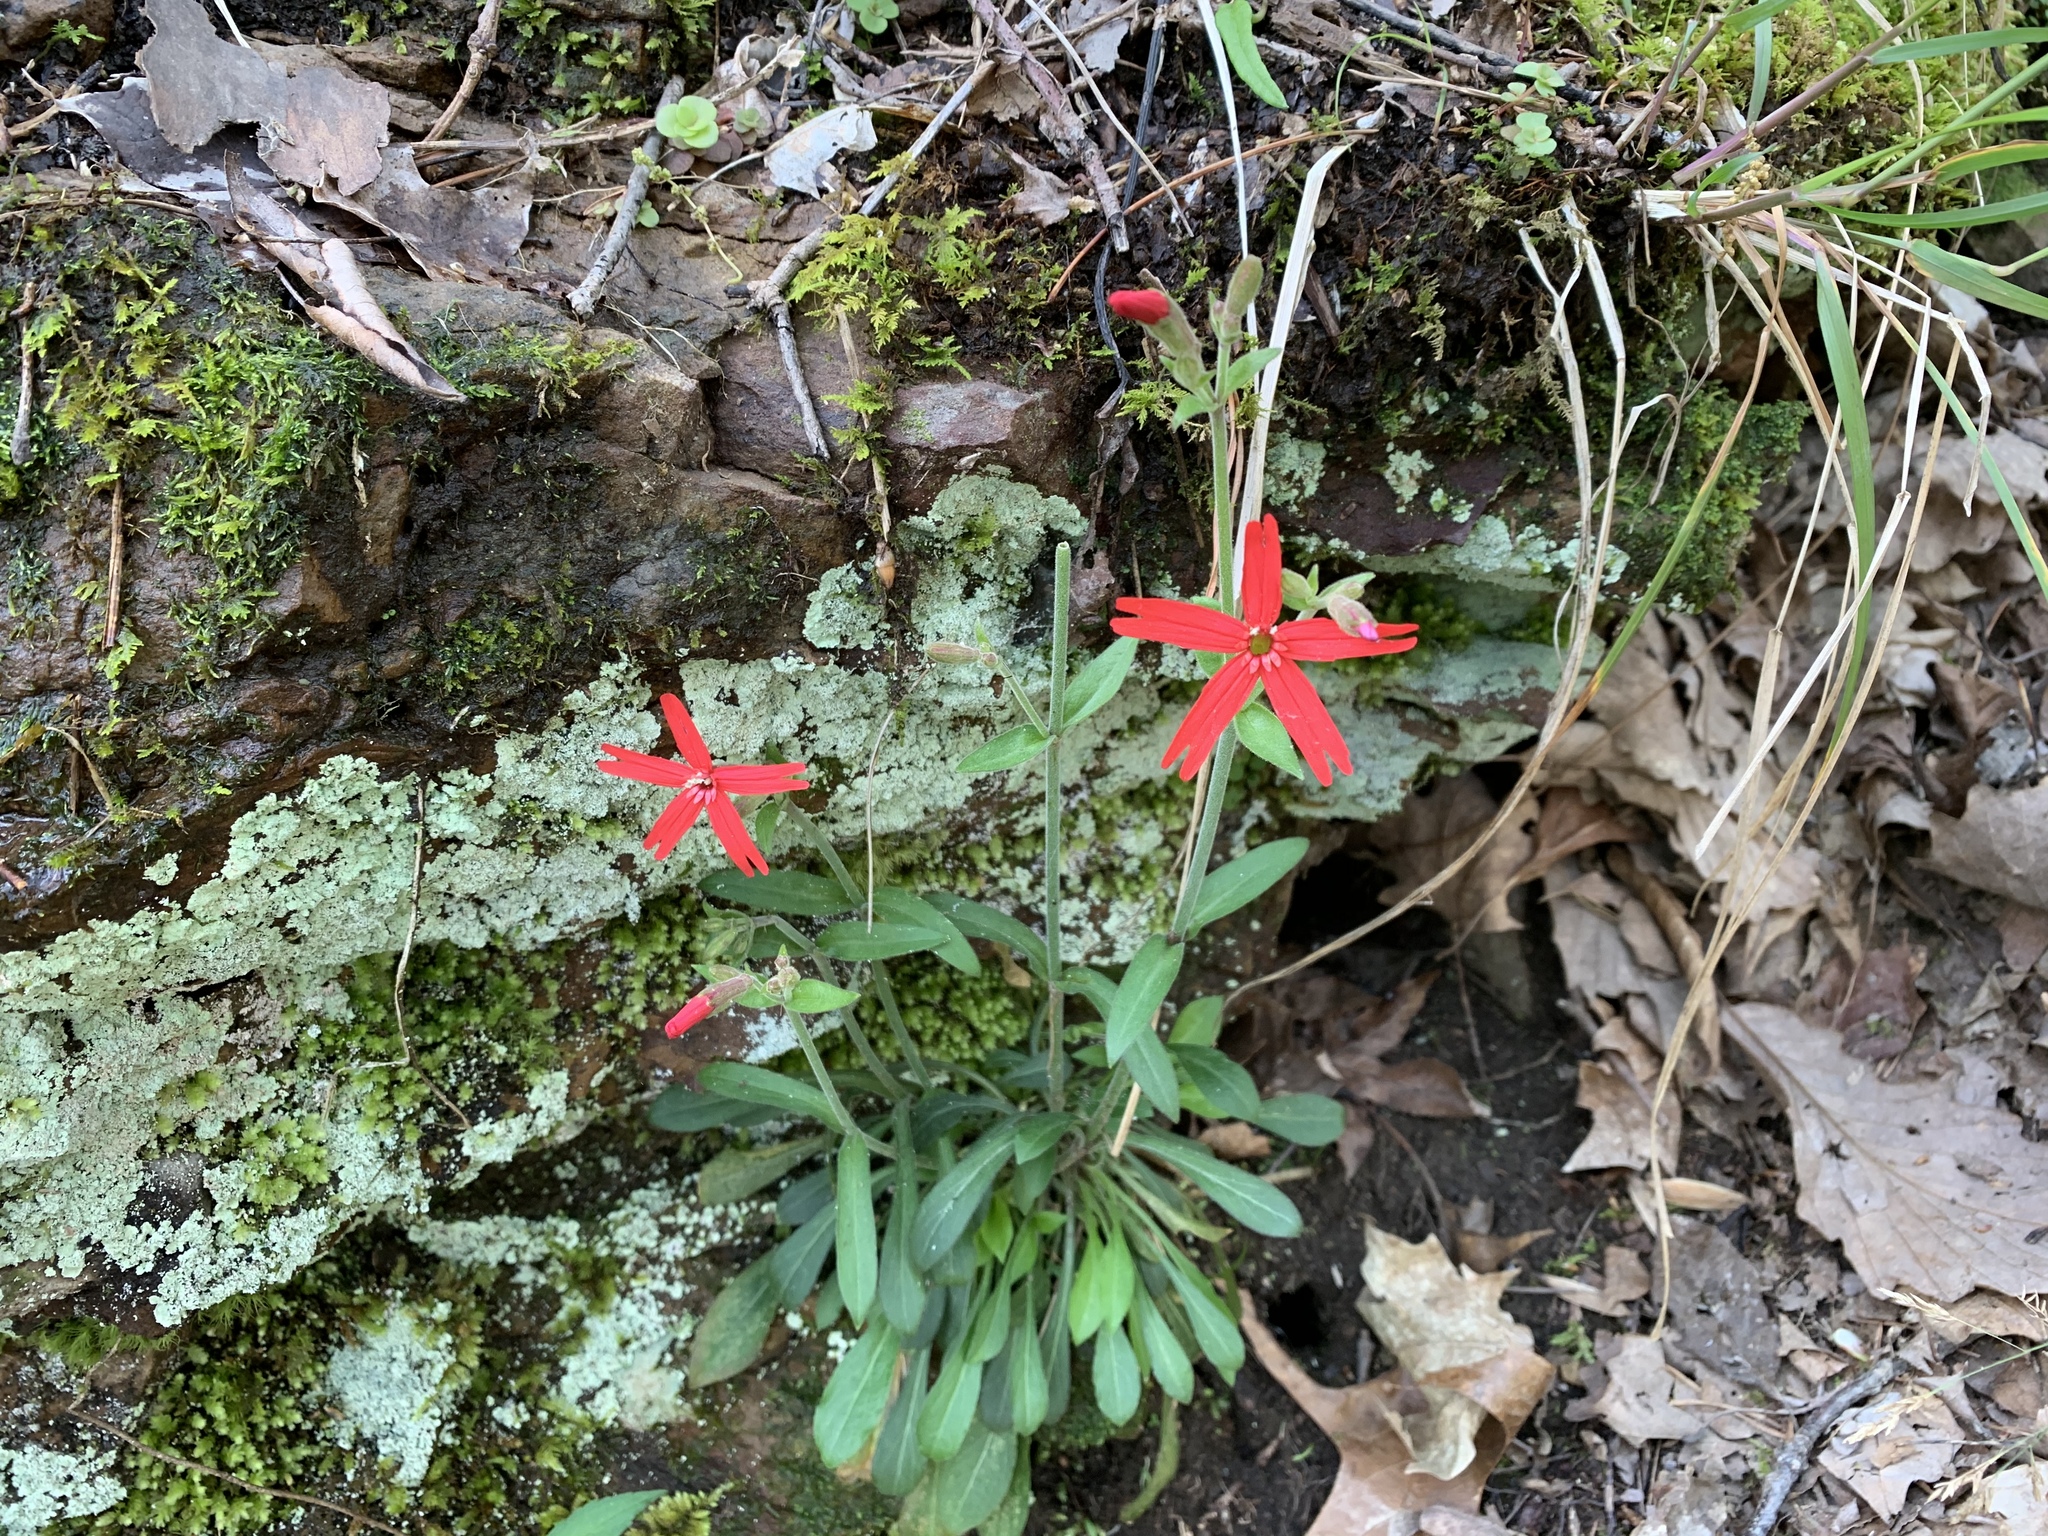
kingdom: Plantae
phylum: Tracheophyta
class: Magnoliopsida
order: Caryophyllales
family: Caryophyllaceae
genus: Silene
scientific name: Silene virginica
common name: Fire-pink
